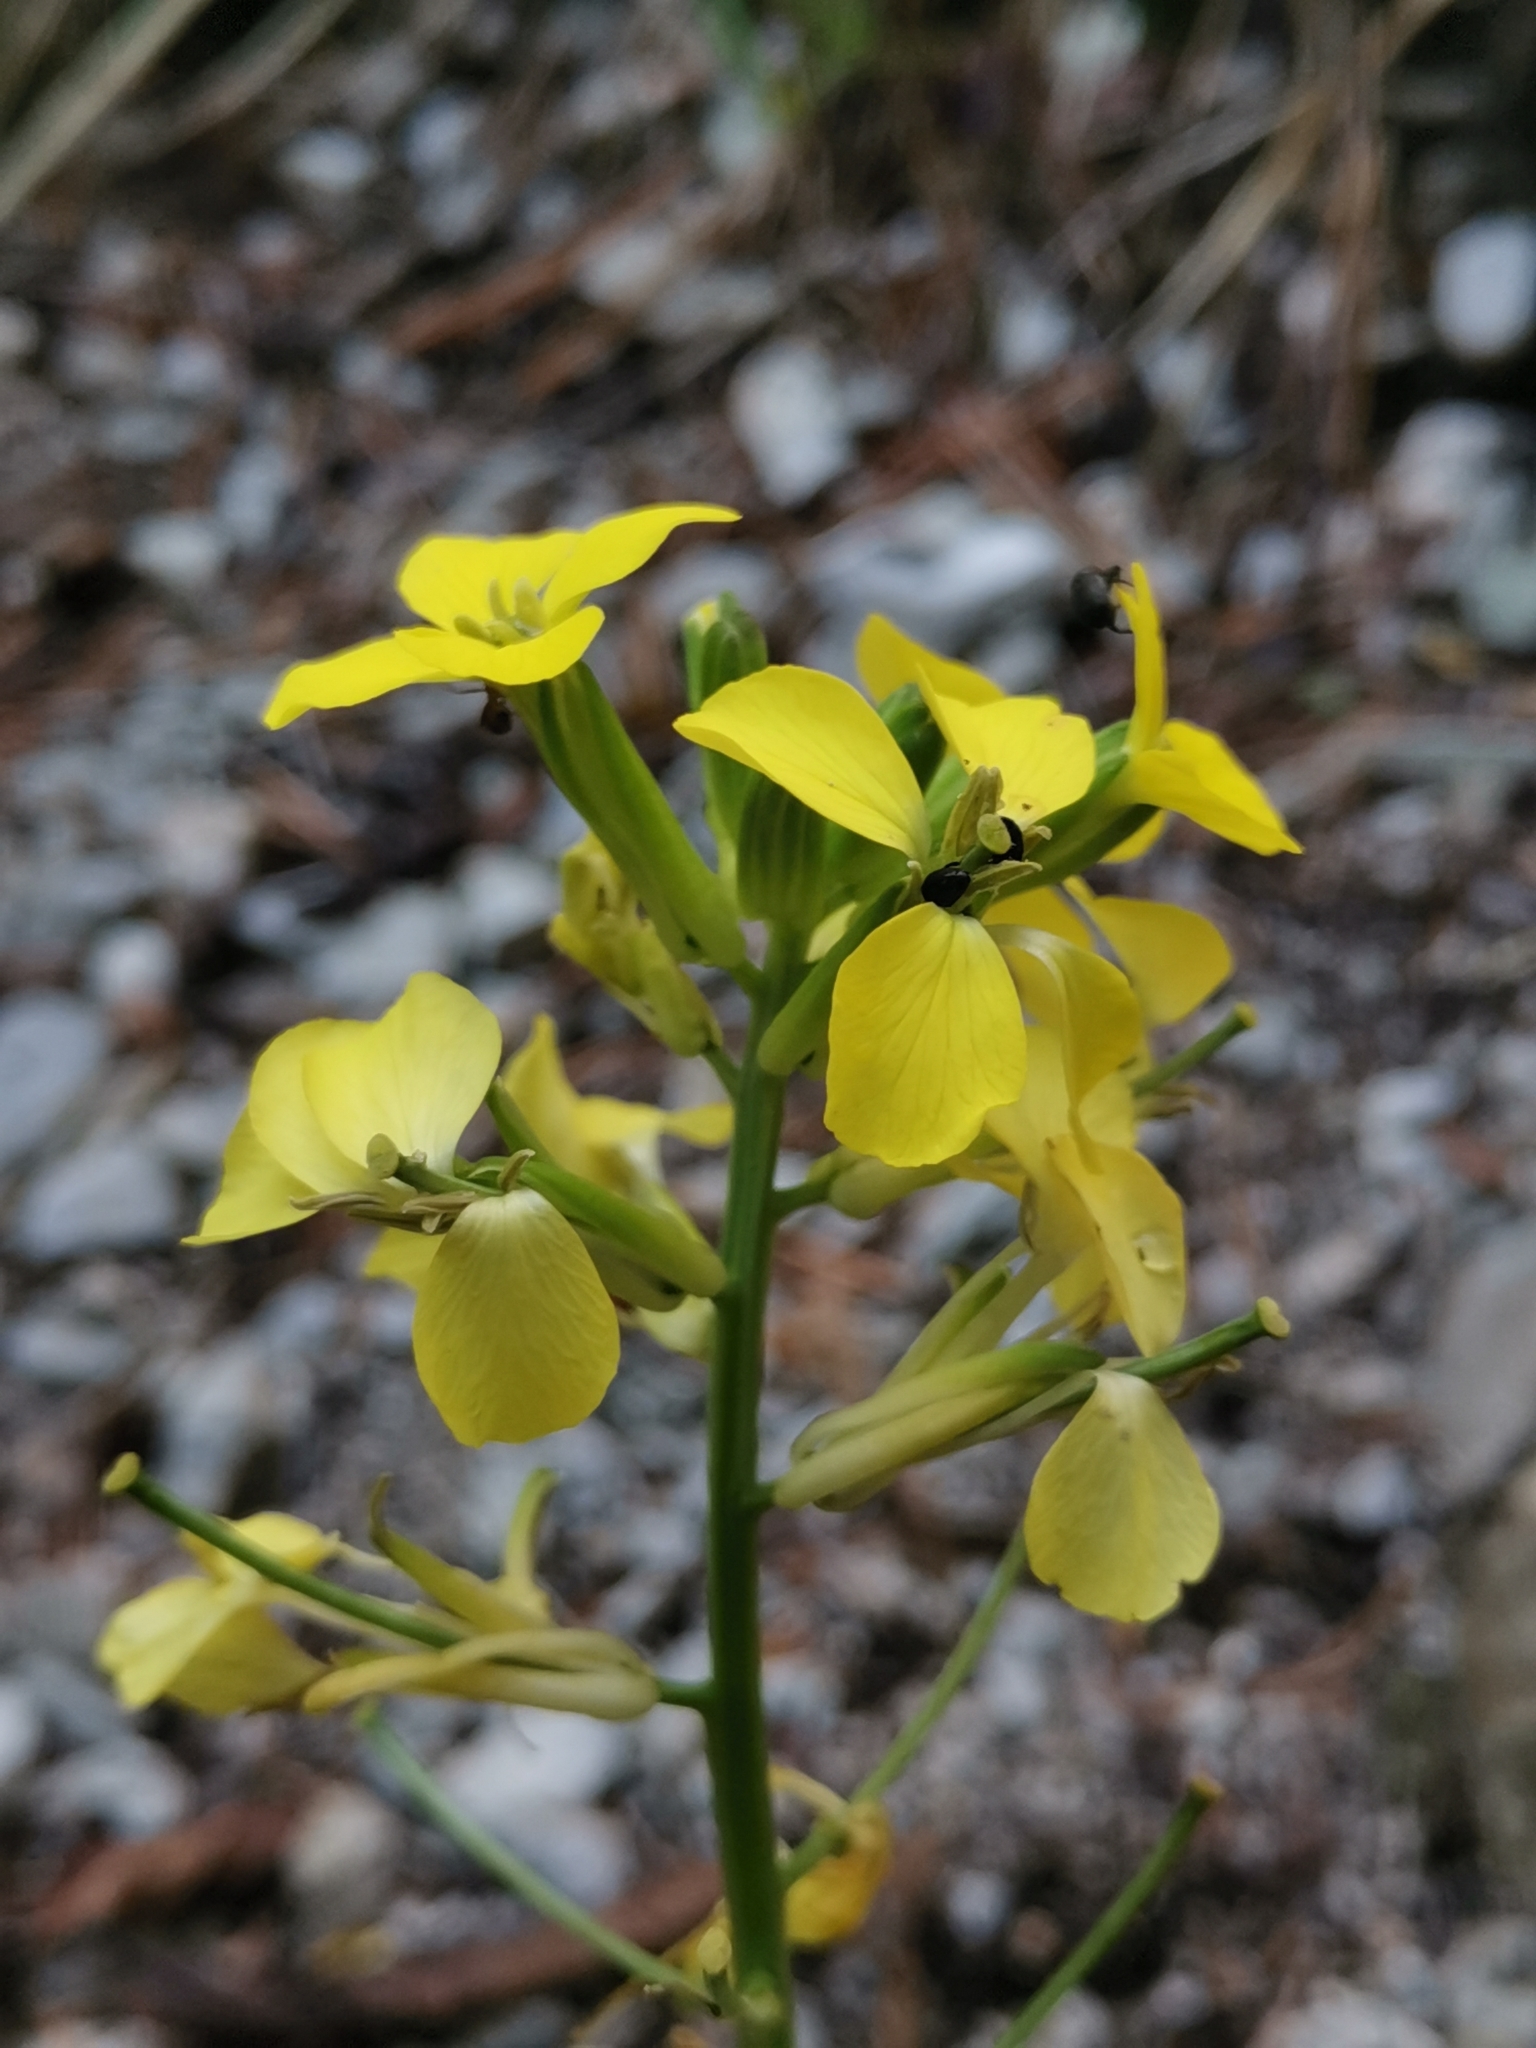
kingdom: Plantae
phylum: Tracheophyta
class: Magnoliopsida
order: Brassicales
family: Brassicaceae
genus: Erysimum
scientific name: Erysimum sylvestre
